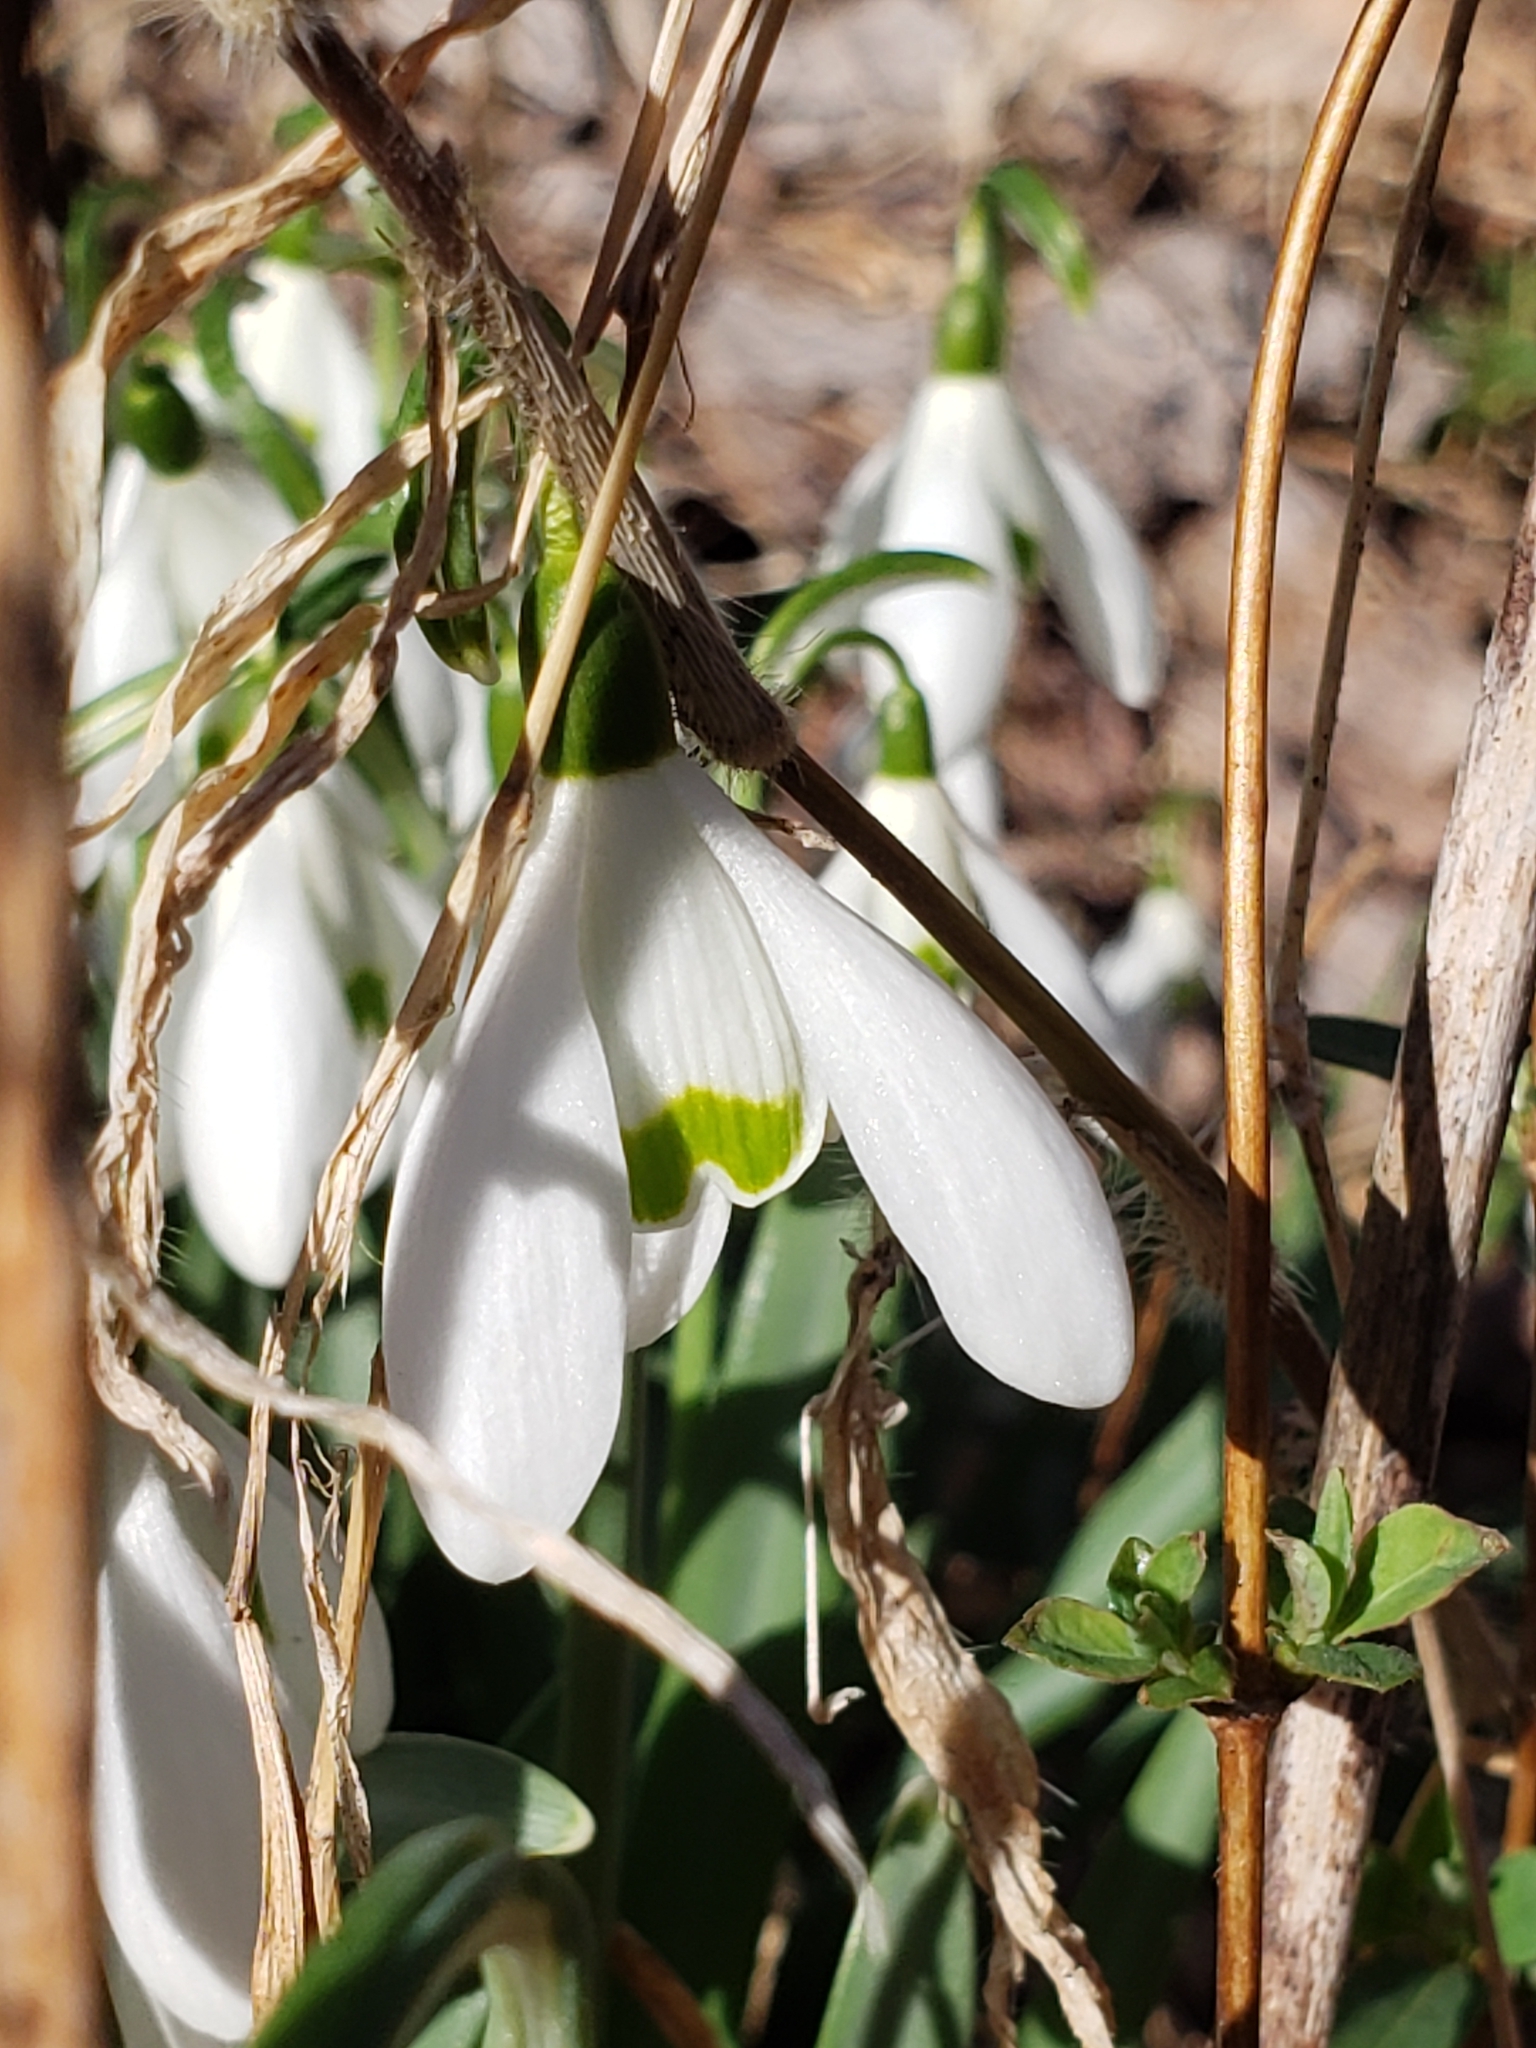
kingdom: Plantae
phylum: Tracheophyta
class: Liliopsida
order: Asparagales
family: Amaryllidaceae
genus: Galanthus
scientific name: Galanthus nivalis
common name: Snowdrop
